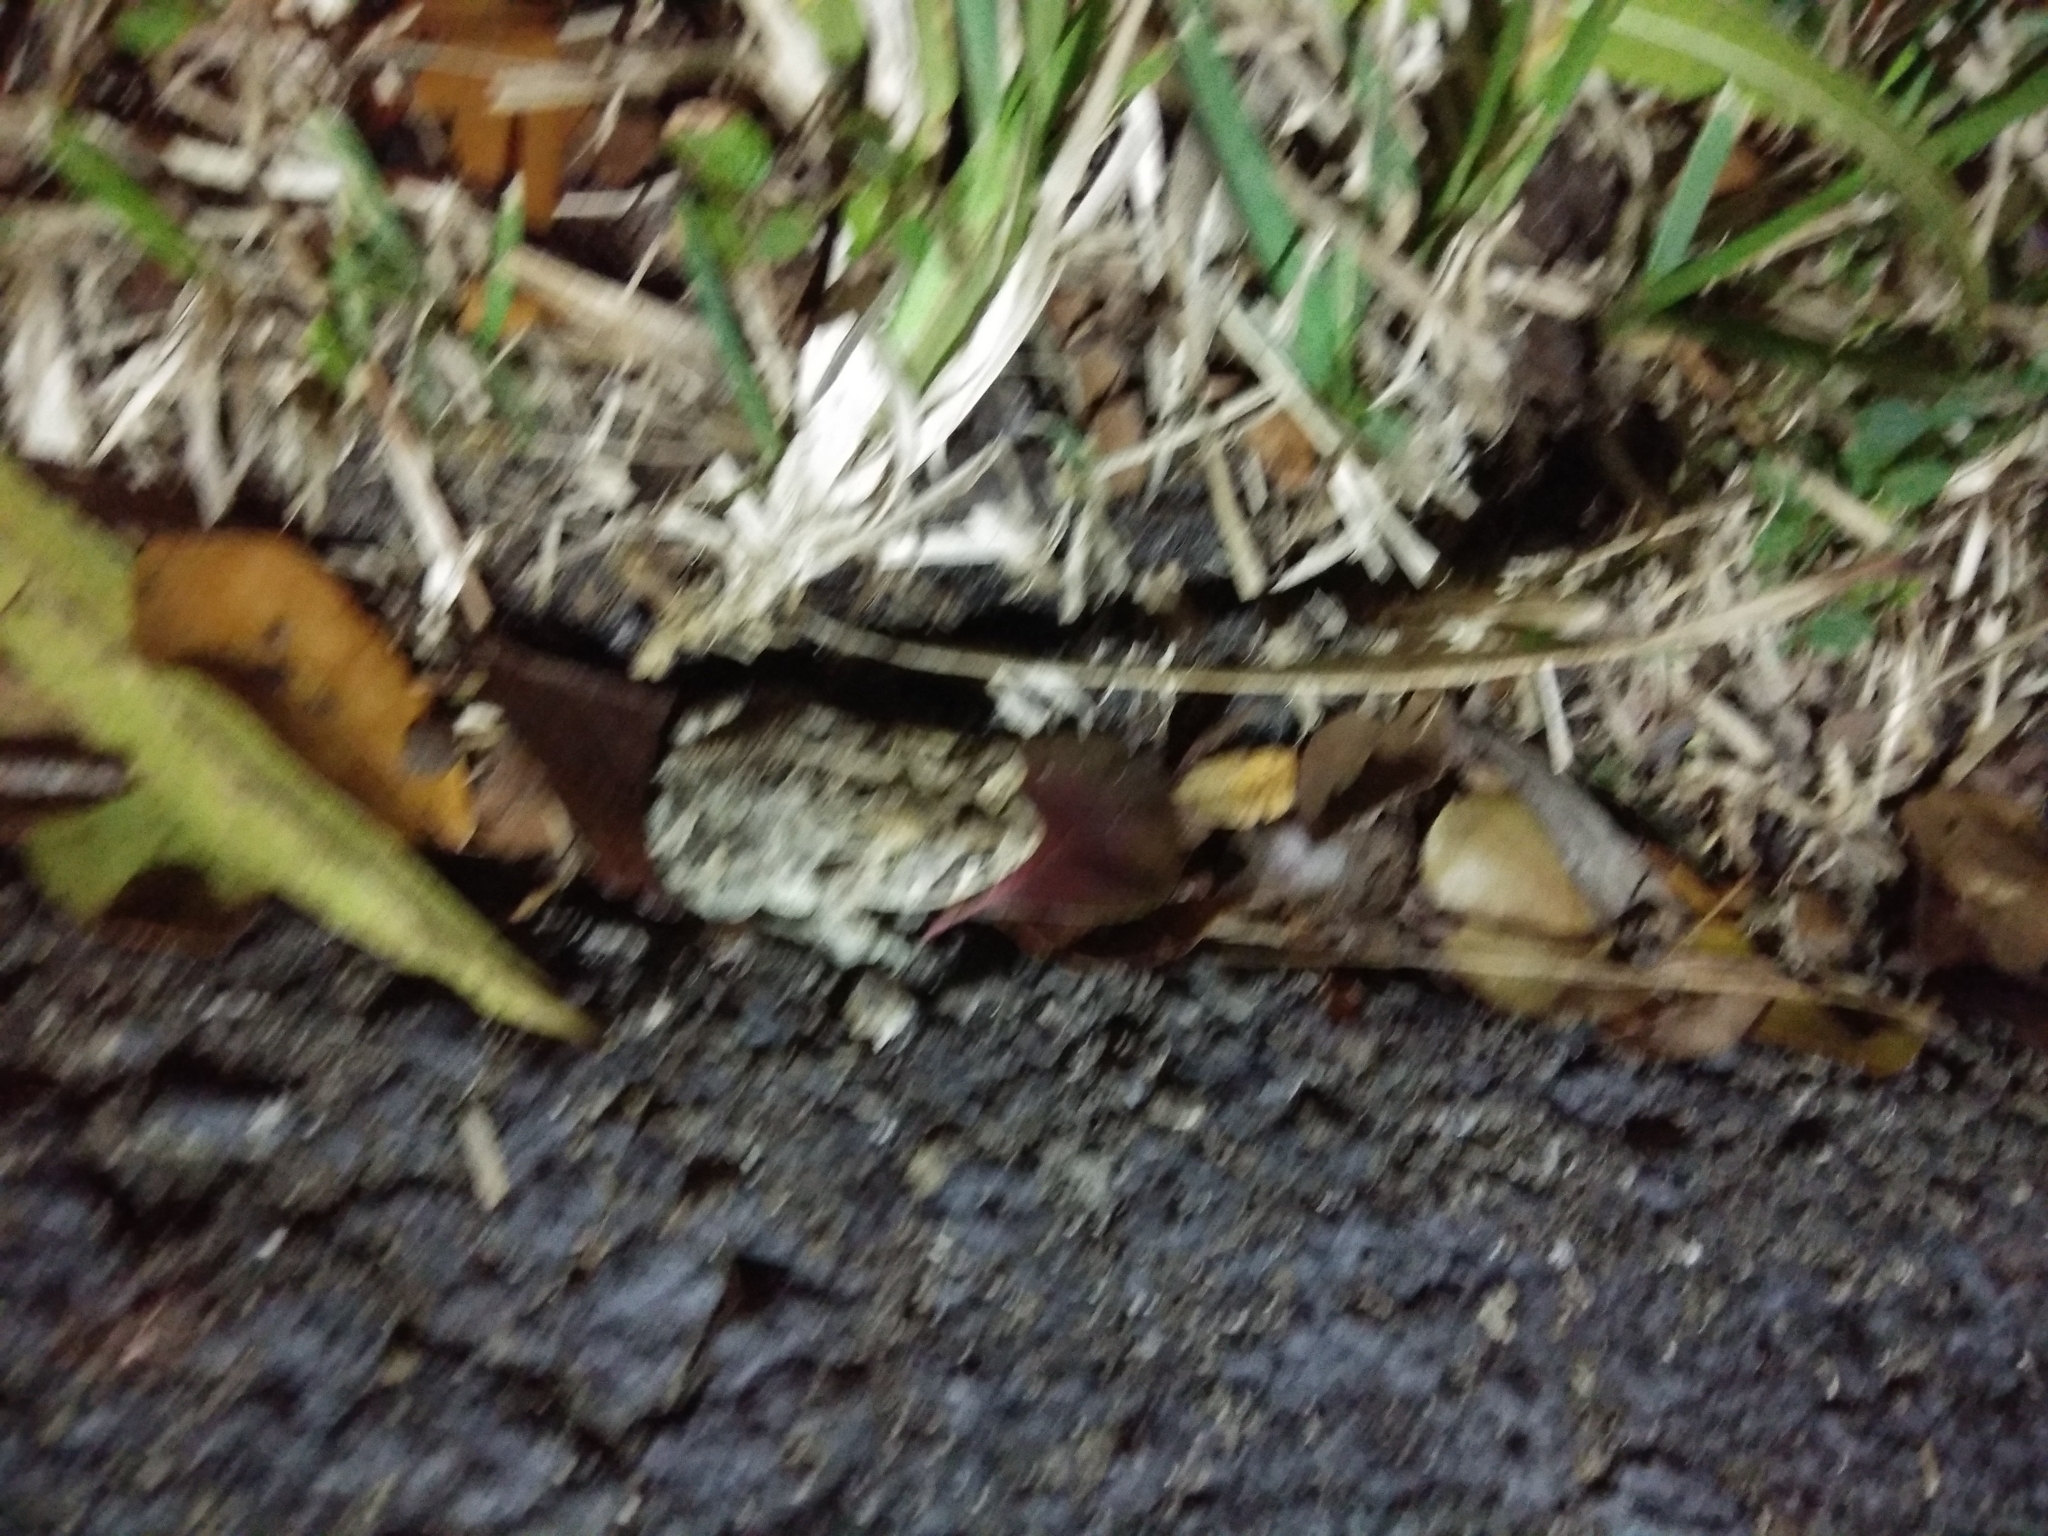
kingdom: Animalia
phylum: Chordata
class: Amphibia
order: Anura
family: Bufonidae
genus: Anaxyrus
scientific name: Anaxyrus terrestris
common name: Southern toad
